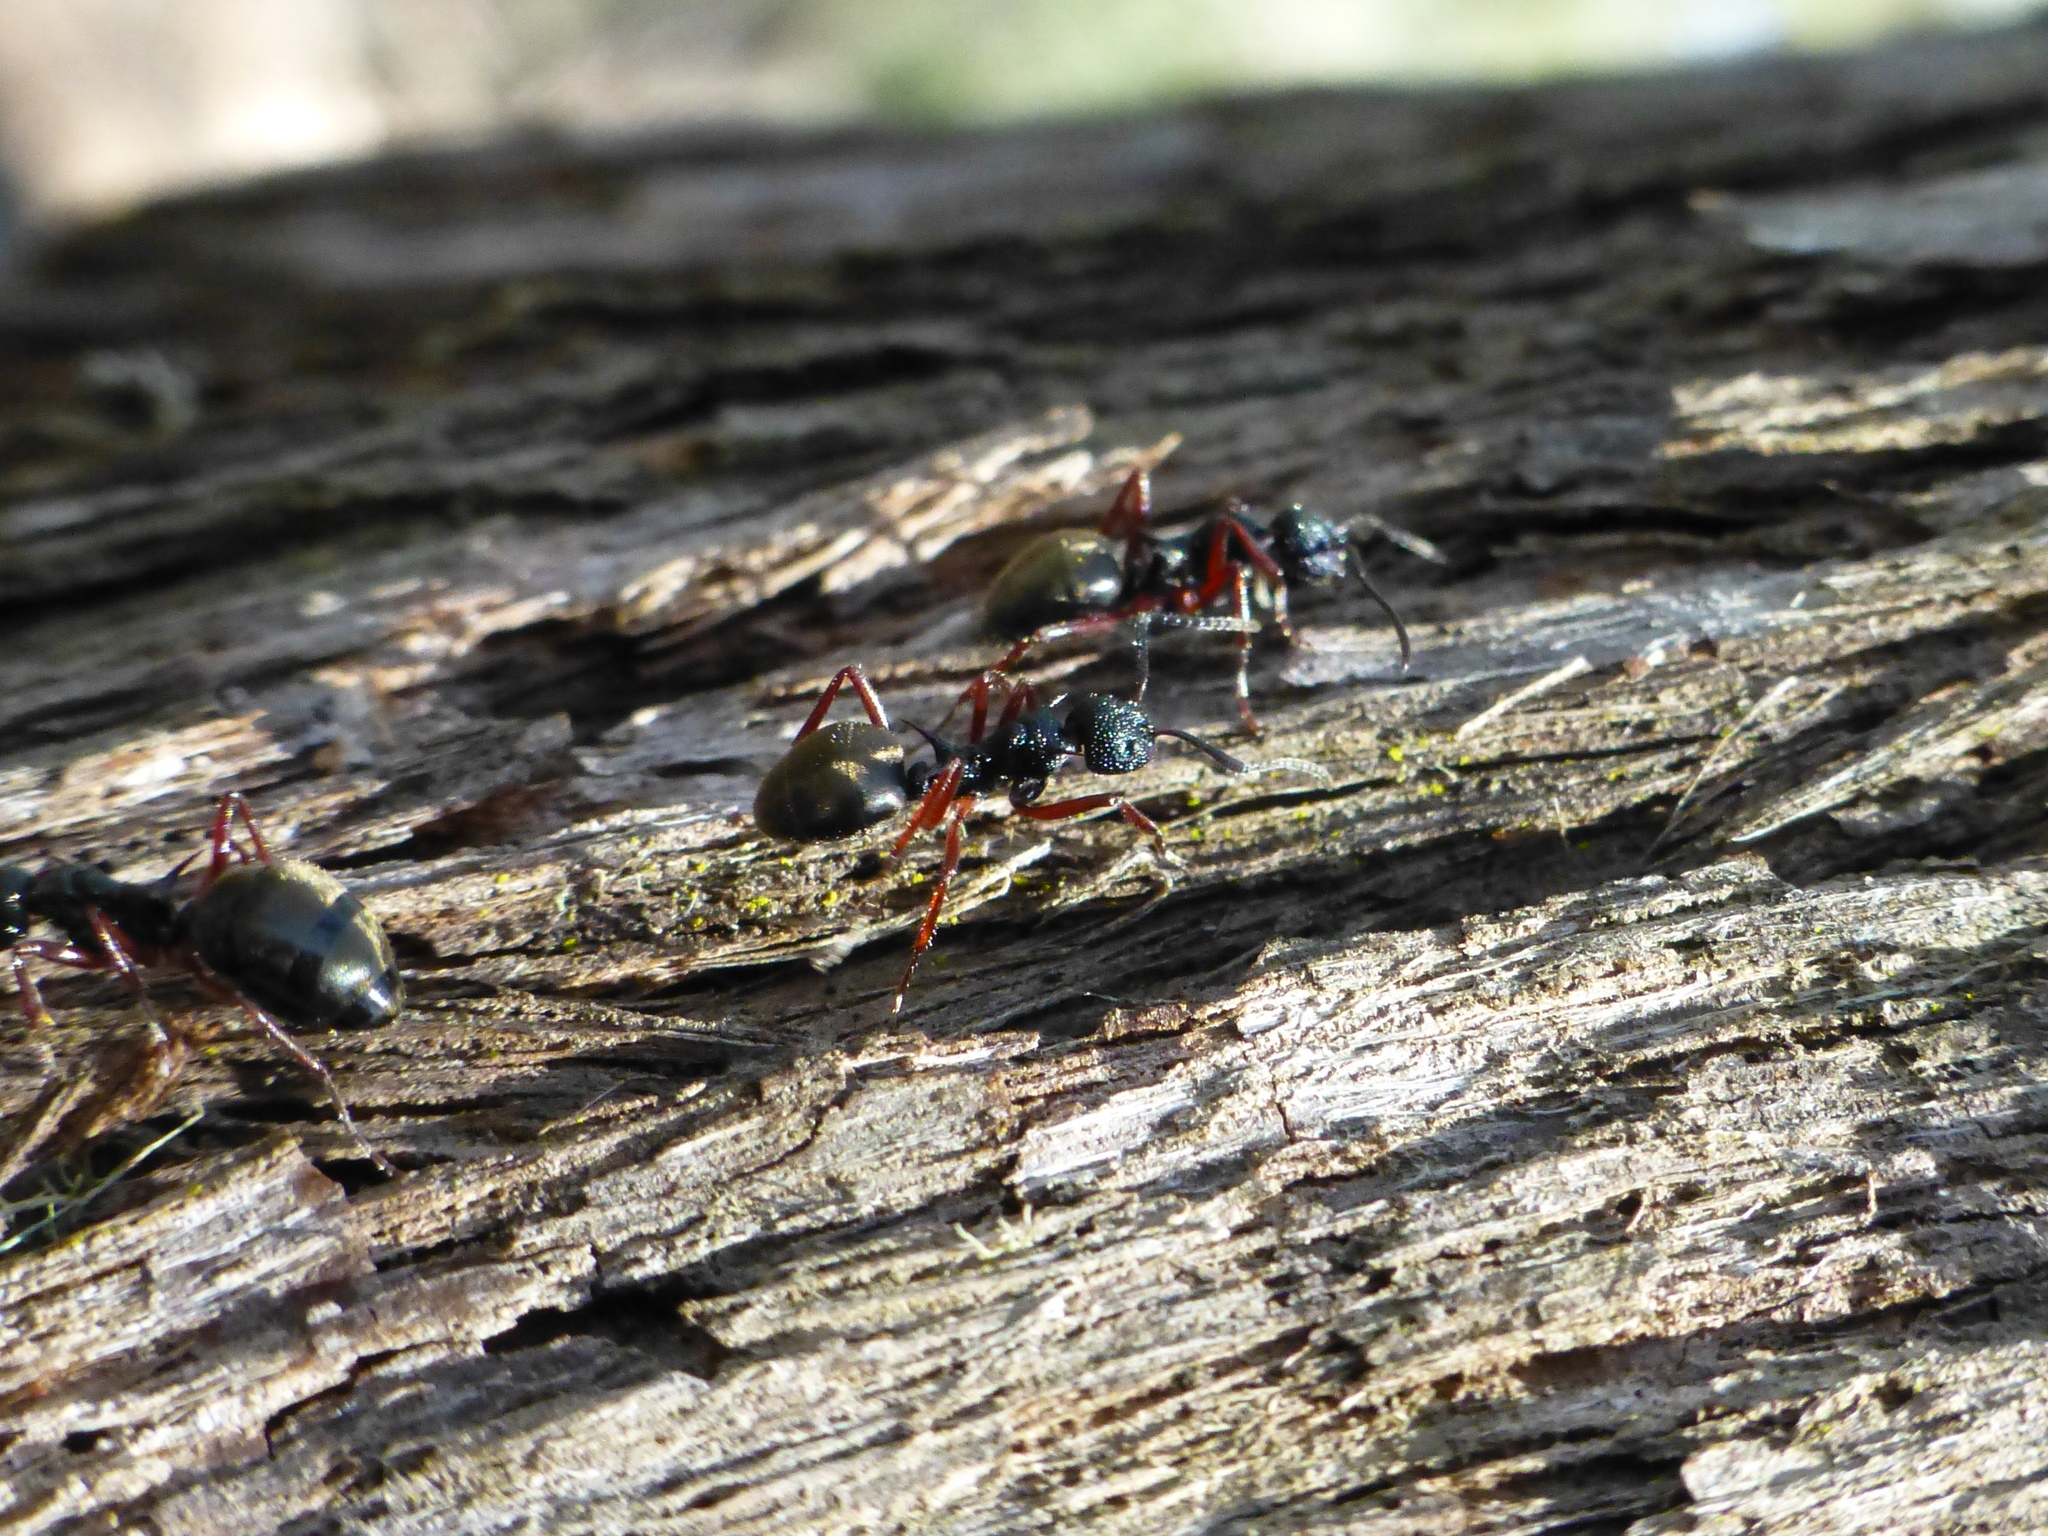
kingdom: Animalia
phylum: Arthropoda
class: Insecta
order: Hymenoptera
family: Formicidae
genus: Dolichoderus
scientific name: Dolichoderus doriae
